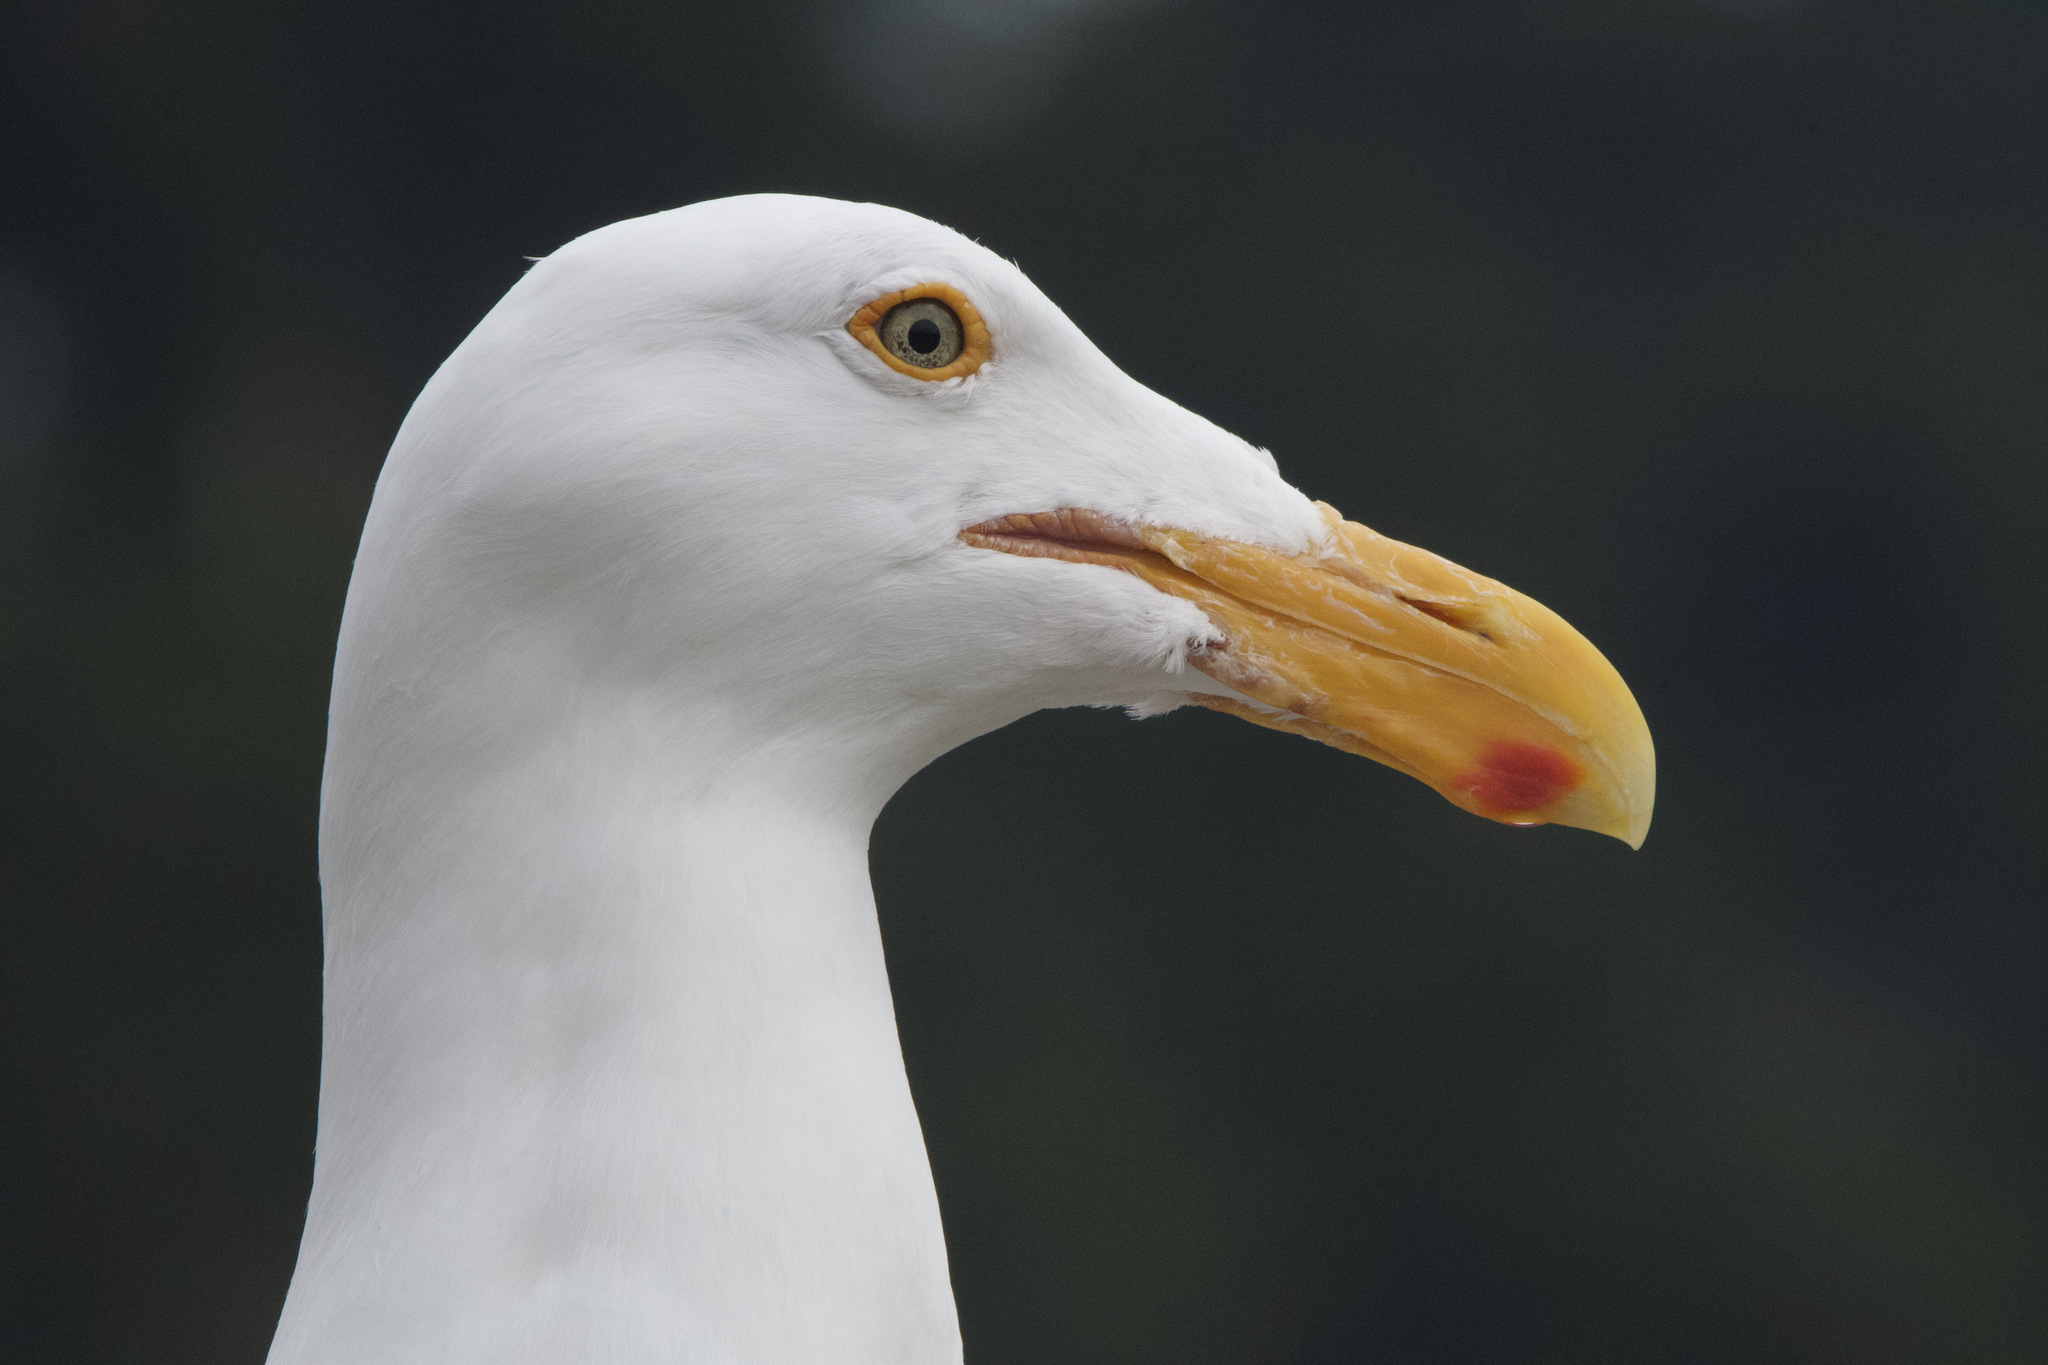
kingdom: Animalia
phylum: Chordata
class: Aves
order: Charadriiformes
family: Laridae
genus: Larus
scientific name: Larus occidentalis
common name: Western gull
